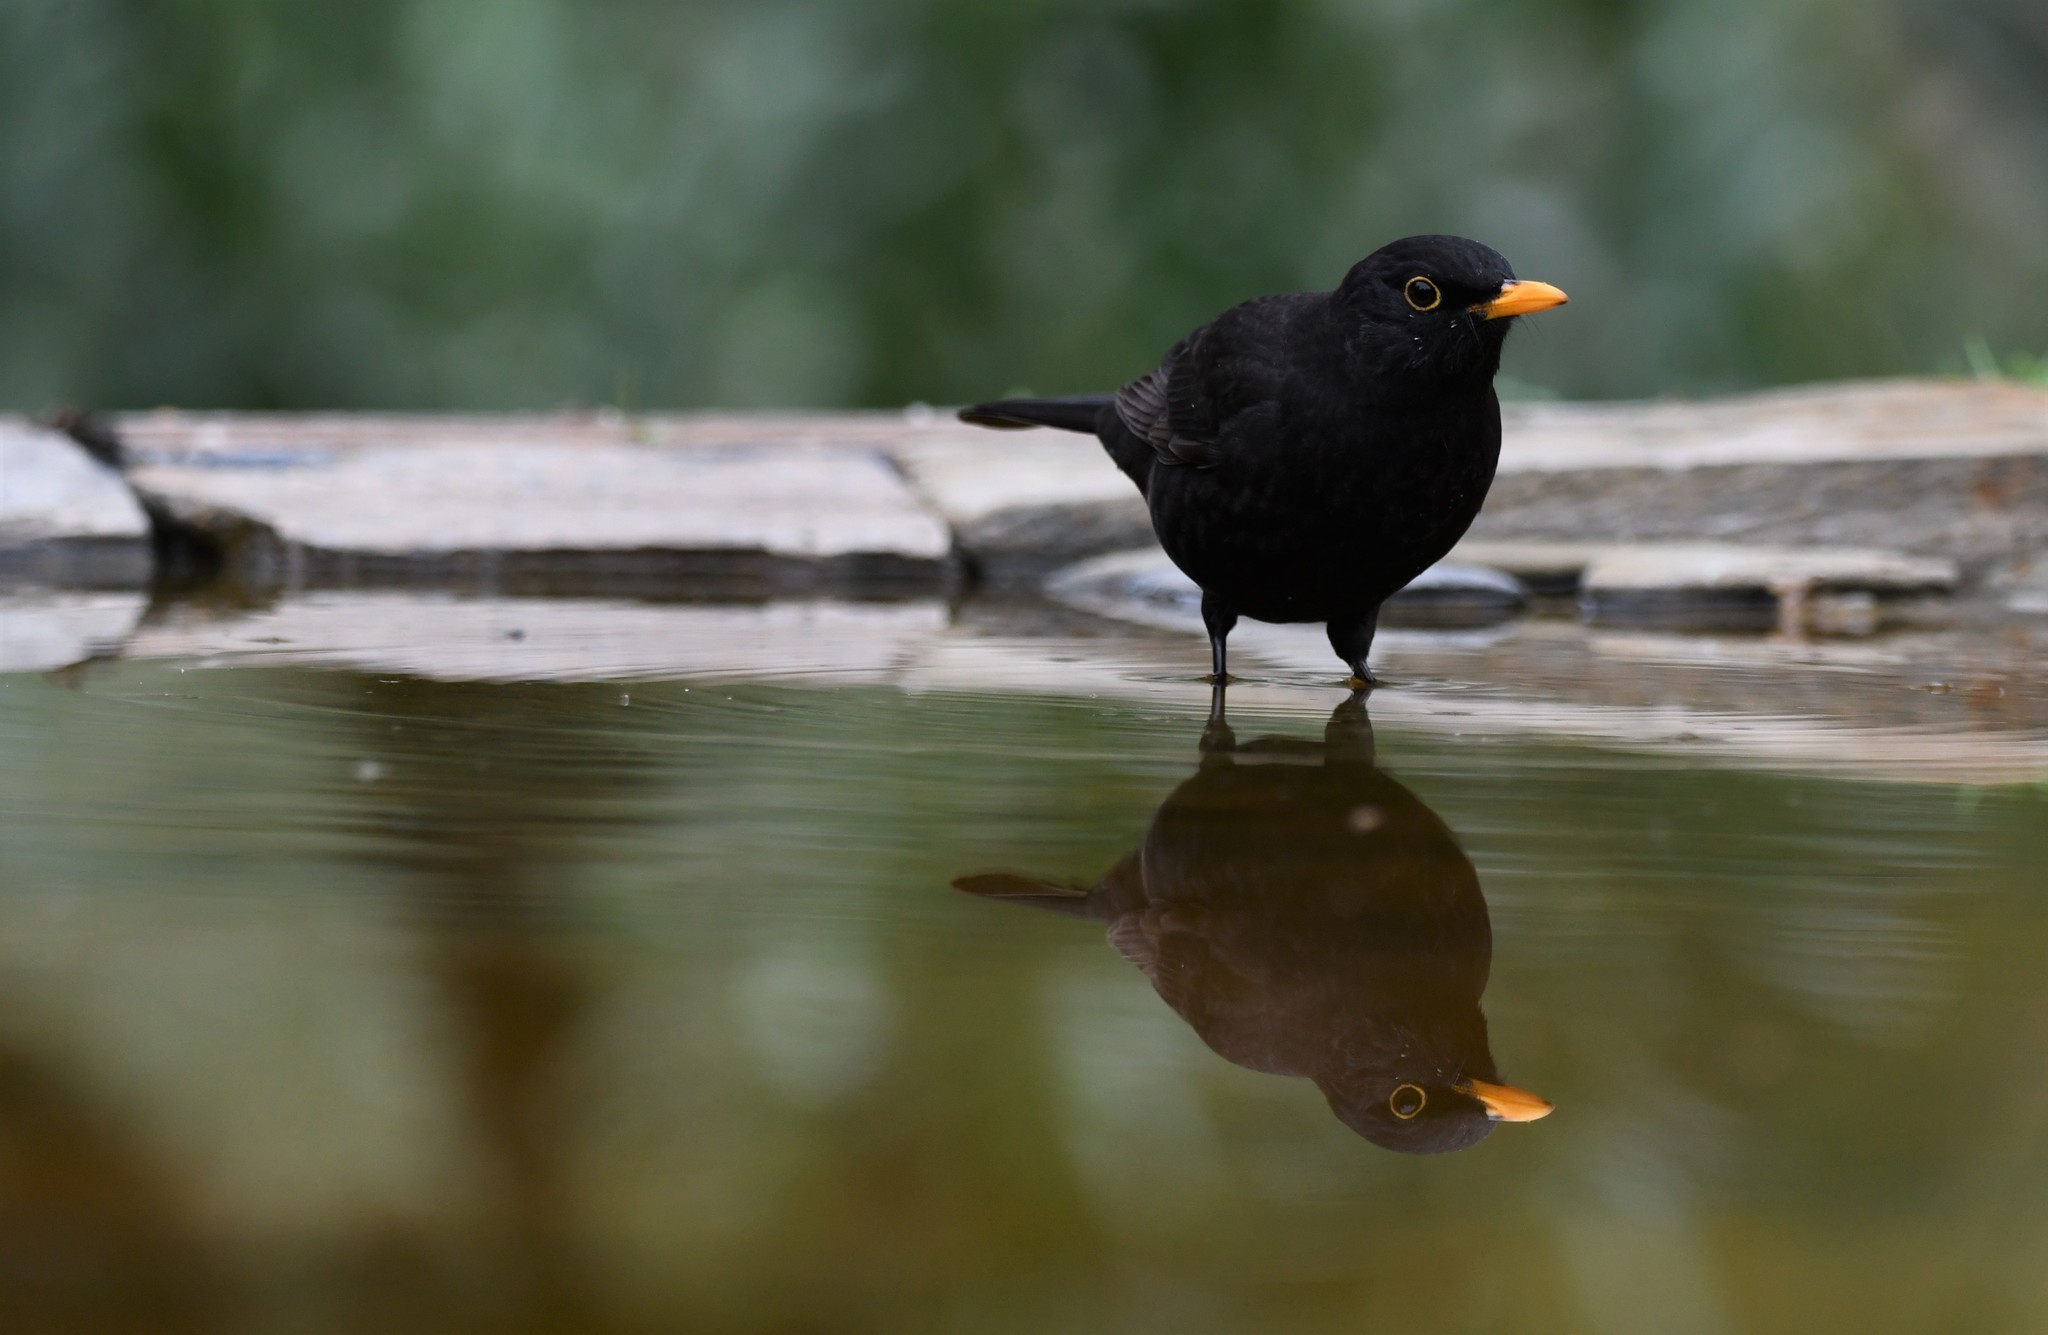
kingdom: Animalia
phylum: Chordata
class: Aves
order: Passeriformes
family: Turdidae
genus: Turdus
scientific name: Turdus merula
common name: Common blackbird
